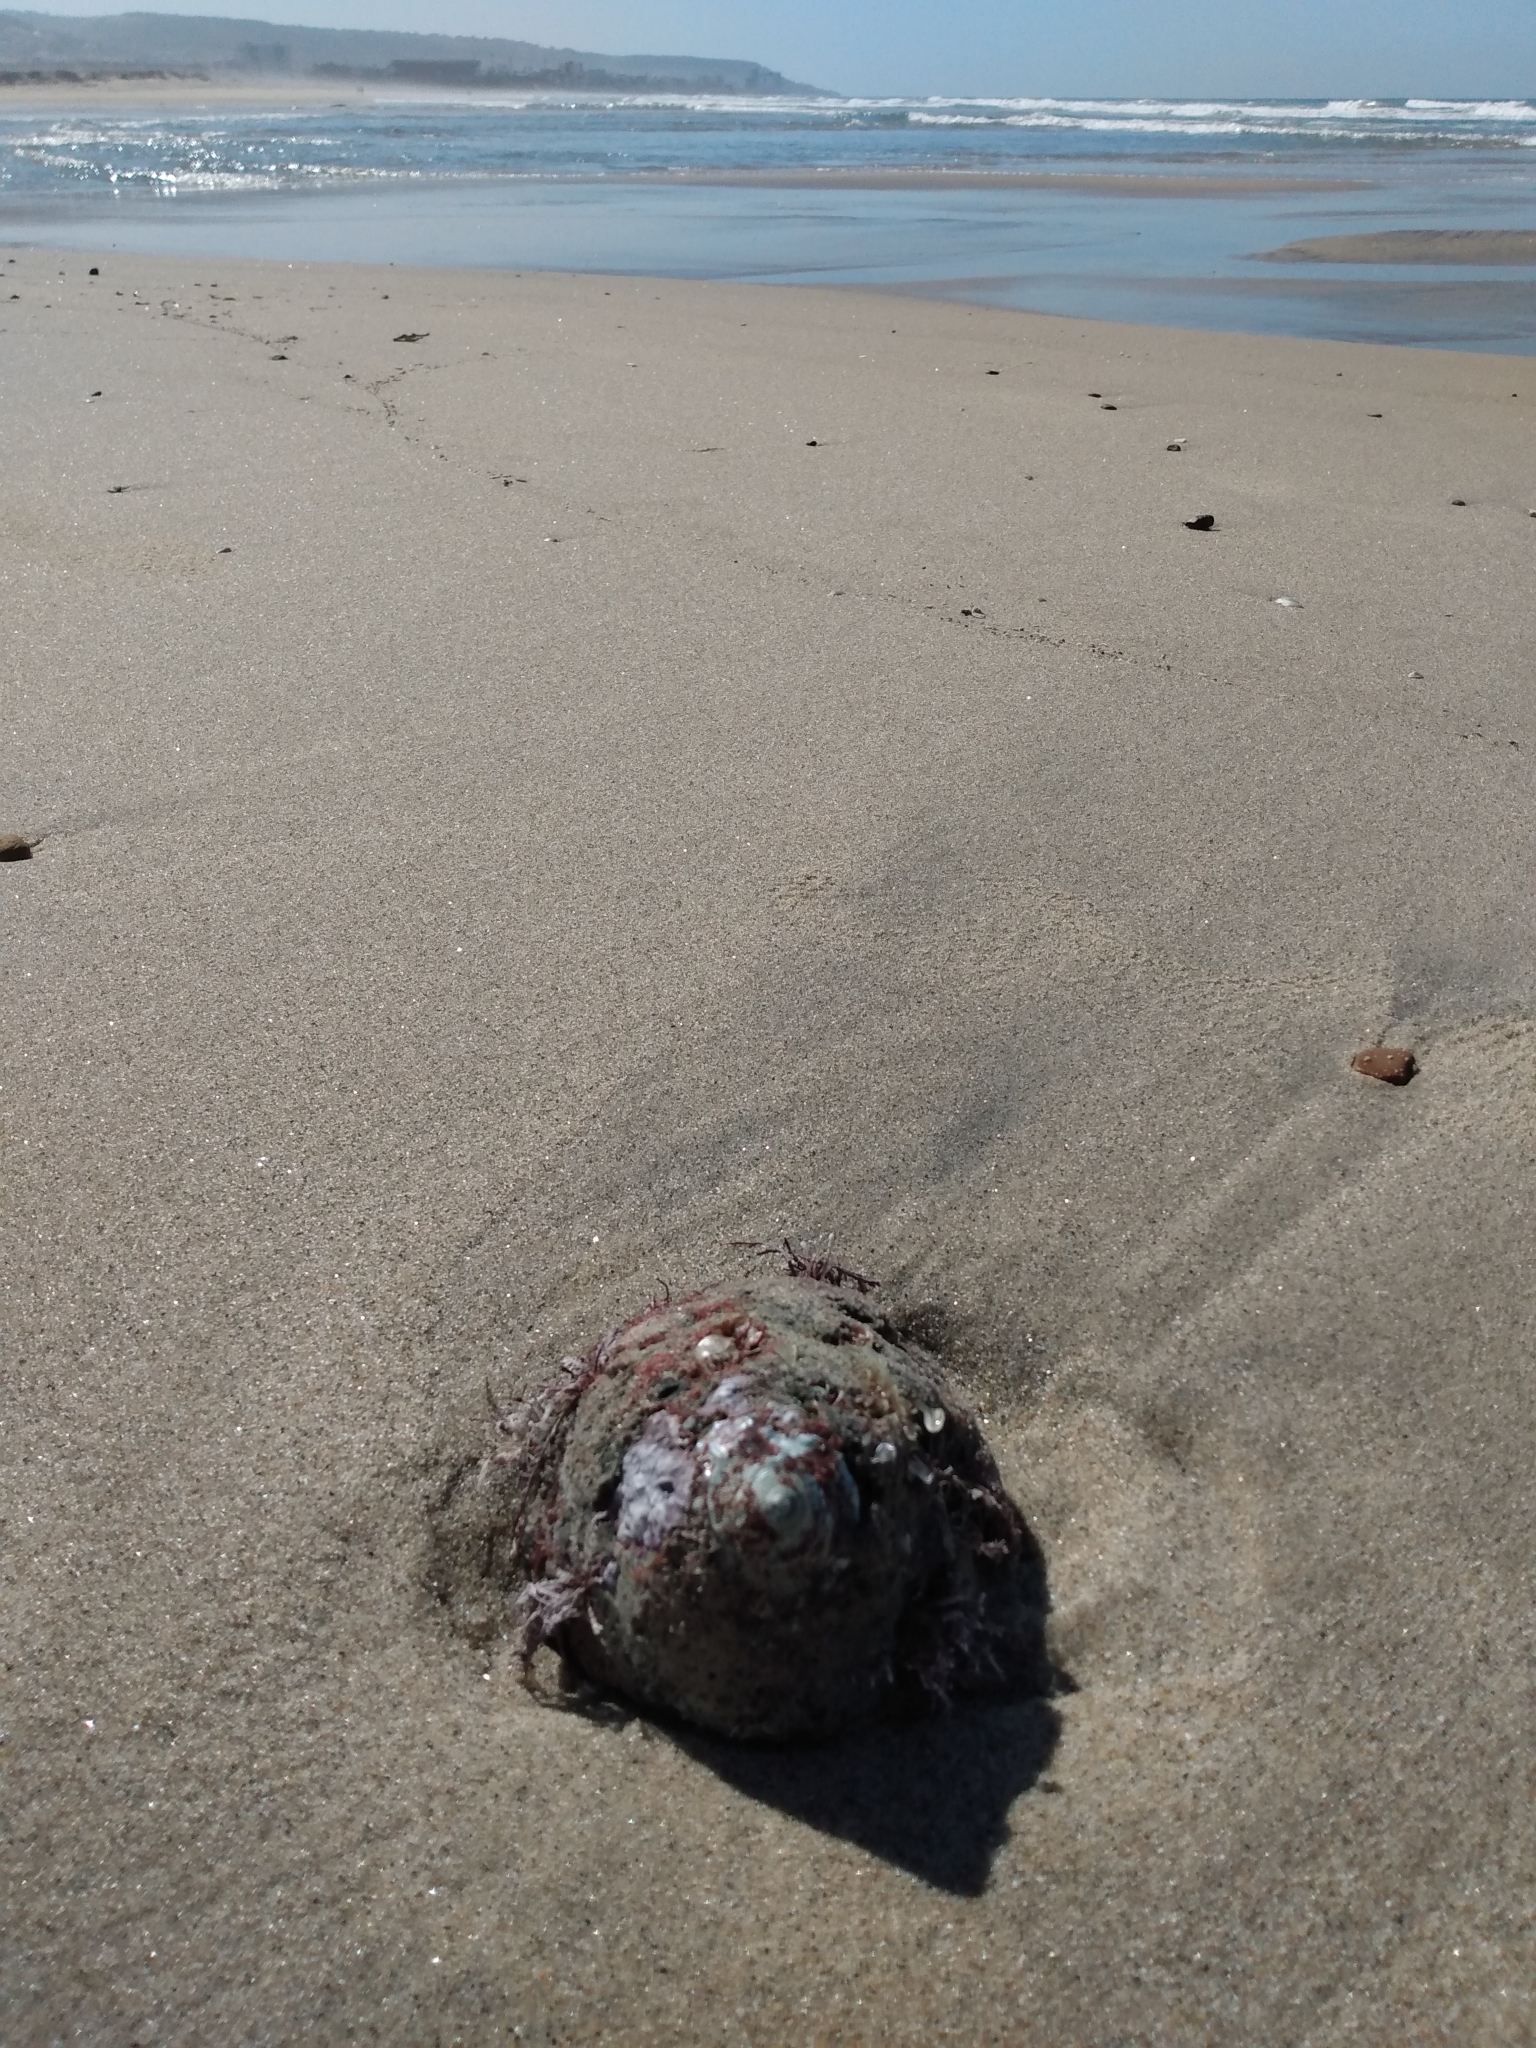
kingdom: Animalia
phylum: Mollusca
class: Gastropoda
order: Trochida
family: Turbinidae
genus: Megastraea
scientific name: Megastraea undosa
